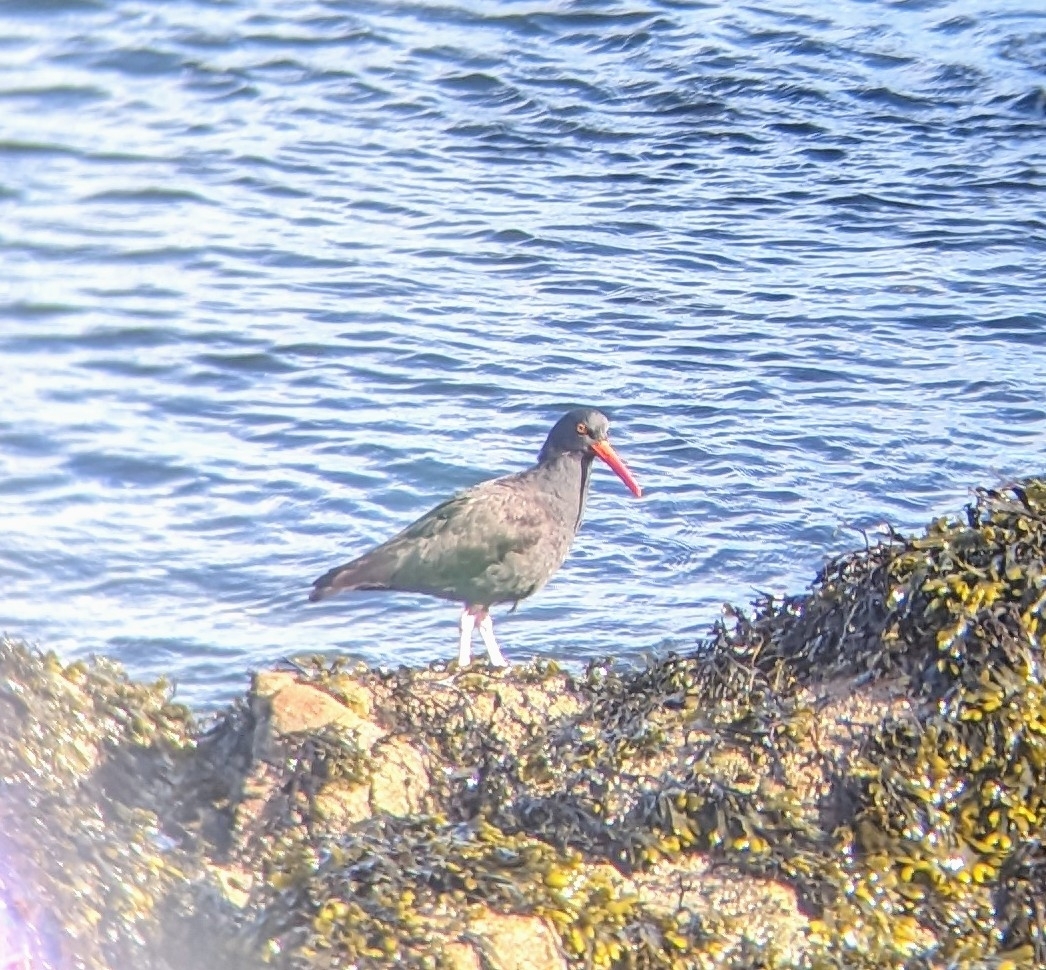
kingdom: Animalia
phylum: Chordata
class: Aves
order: Charadriiformes
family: Haematopodidae
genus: Haematopus
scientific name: Haematopus bachmani
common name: Black oystercatcher
